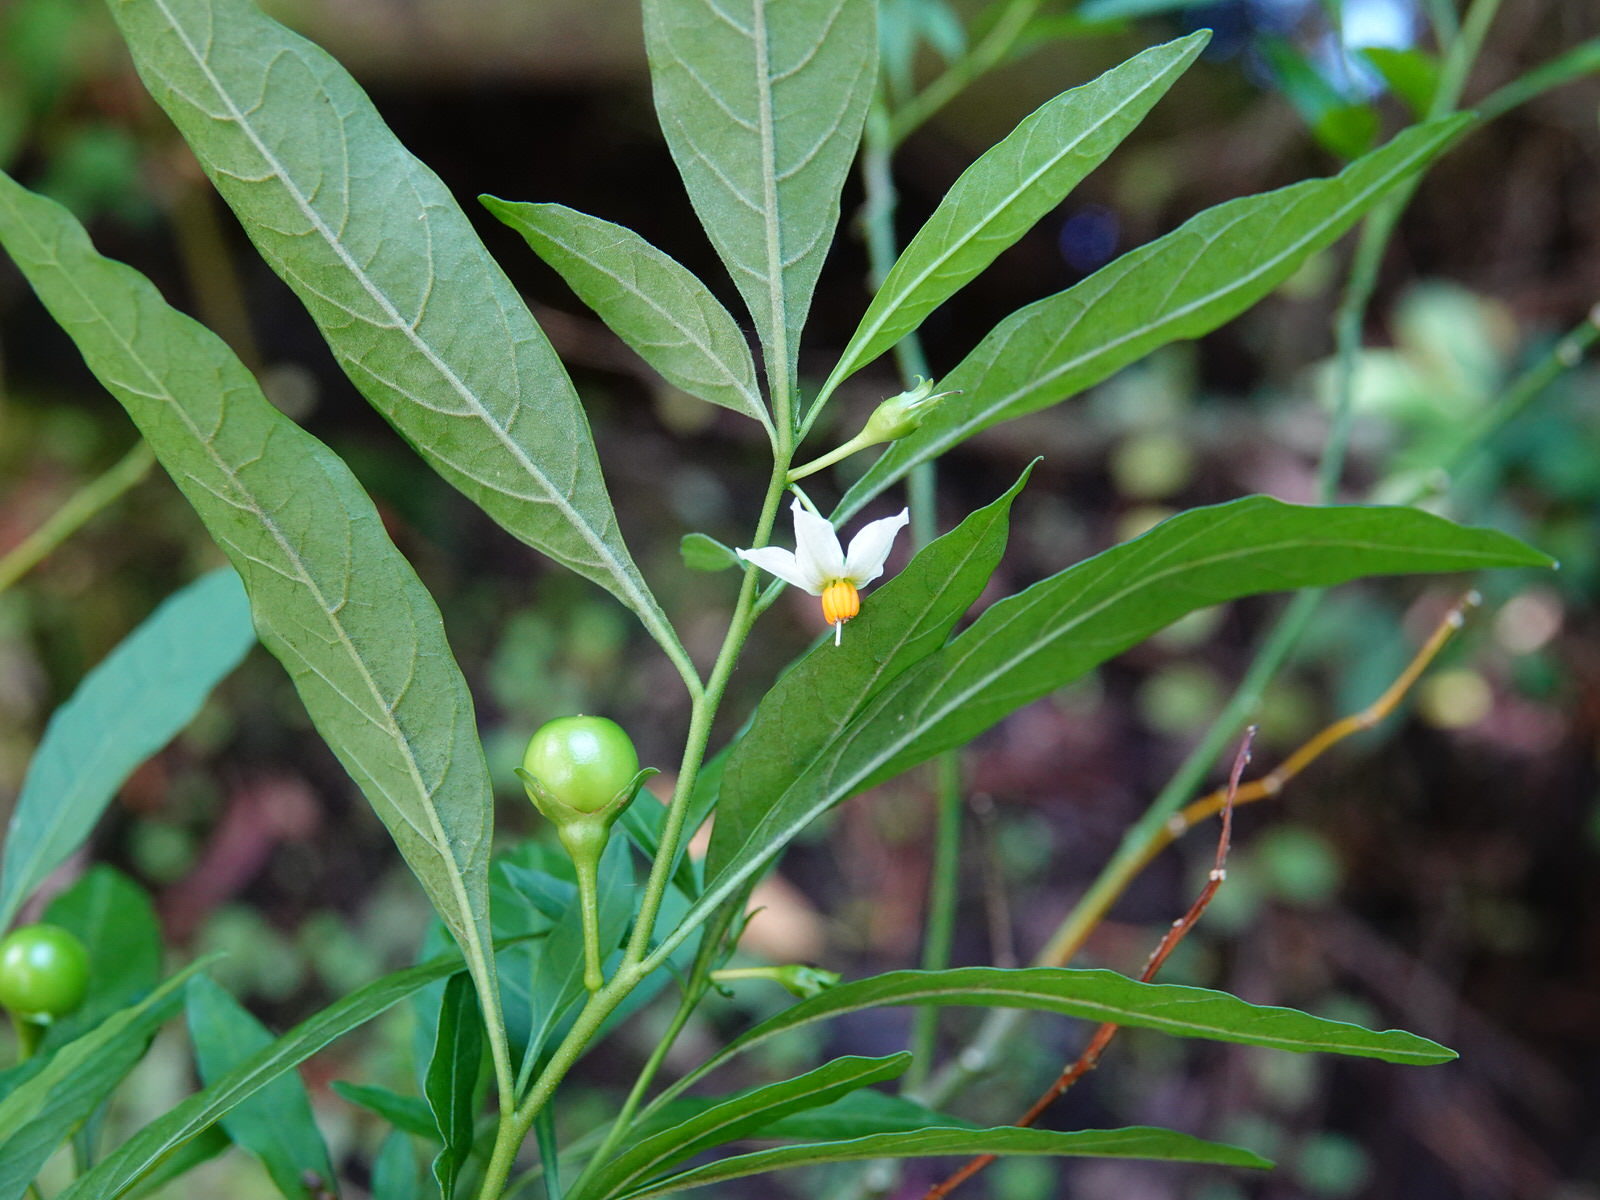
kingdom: Plantae
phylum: Tracheophyta
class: Magnoliopsida
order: Solanales
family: Solanaceae
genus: Solanum
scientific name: Solanum pseudocapsicum
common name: Jerusalem cherry
